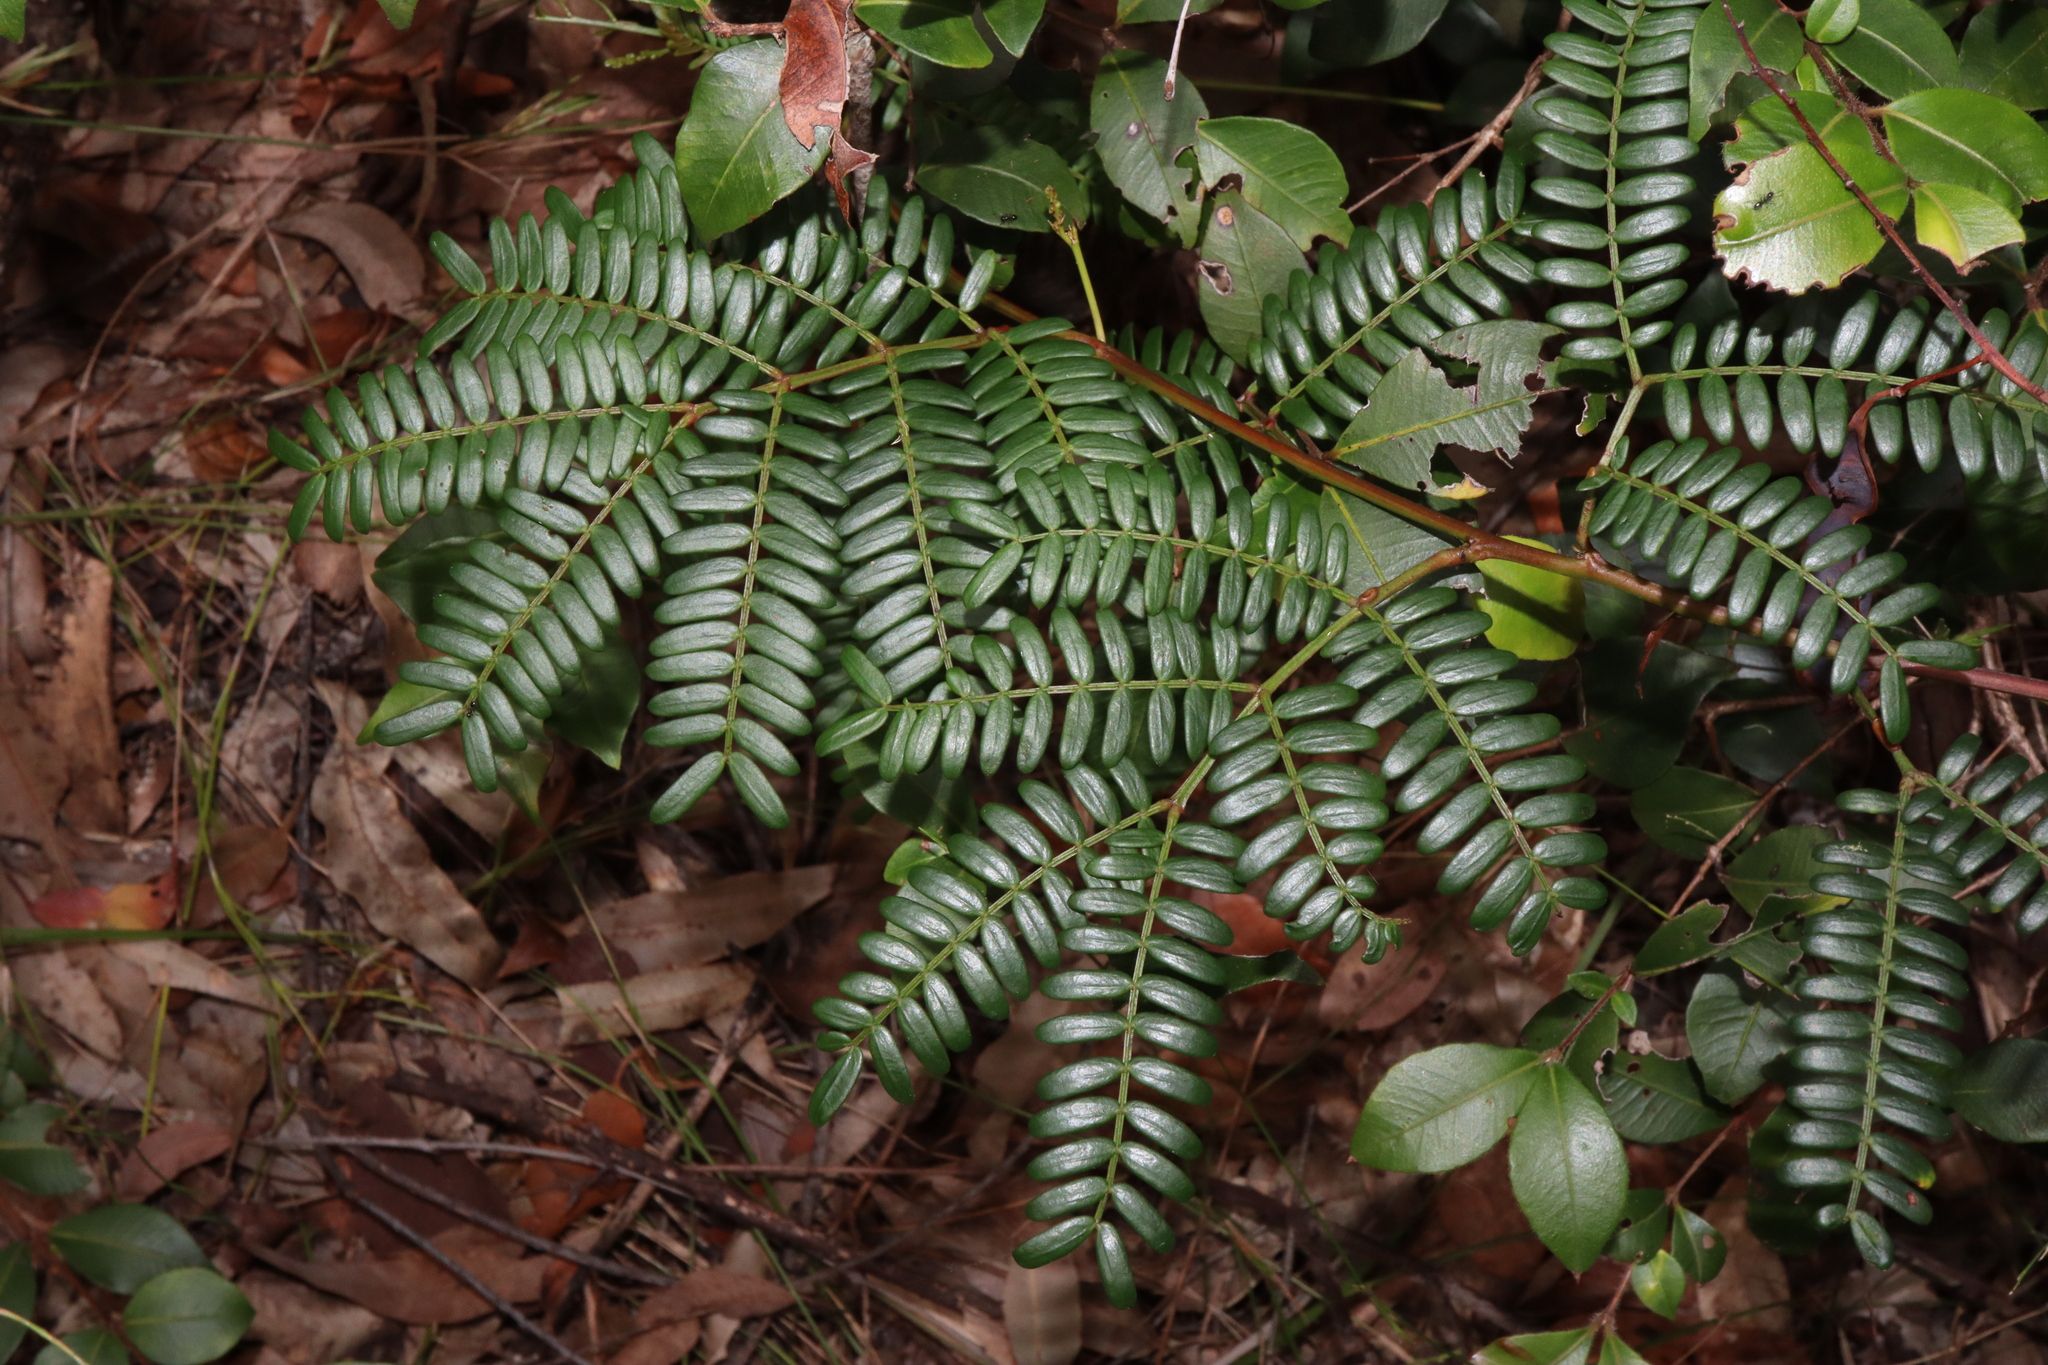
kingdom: Plantae
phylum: Tracheophyta
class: Magnoliopsida
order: Fabales
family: Fabaceae
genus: Acacia
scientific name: Acacia terminalis
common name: Cedar wattle
